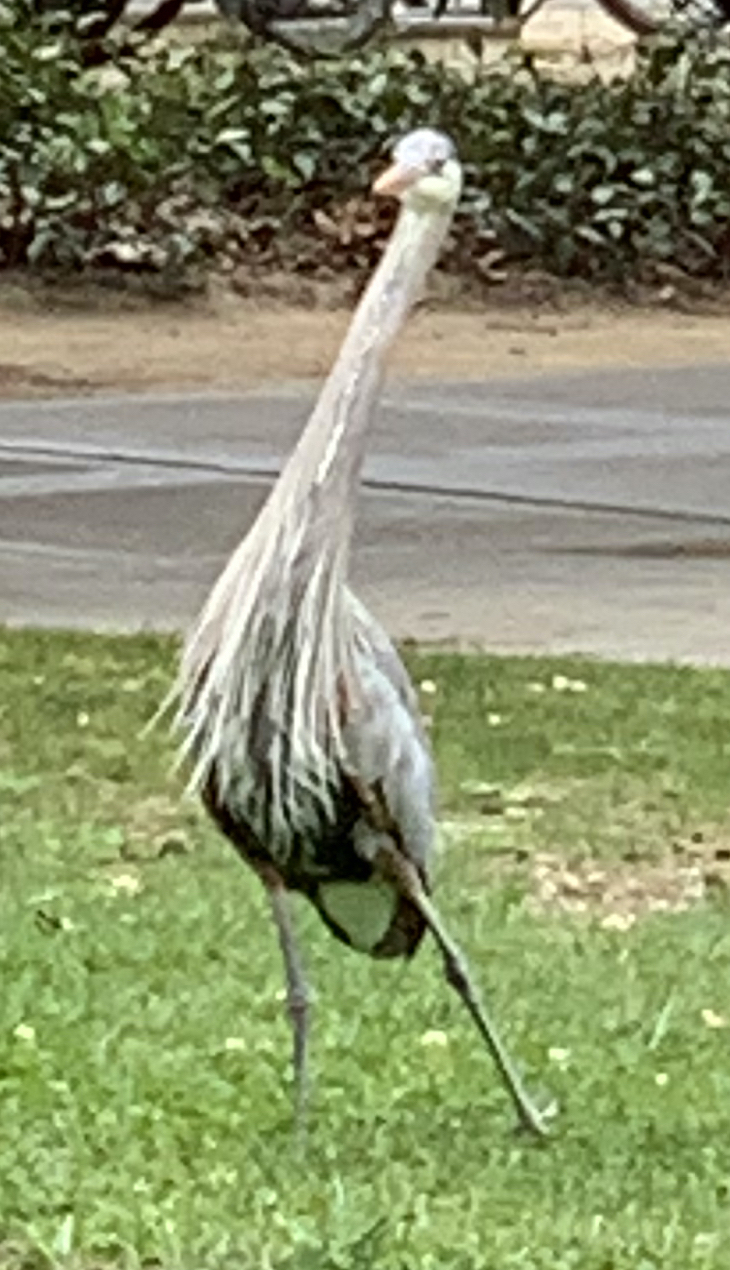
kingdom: Animalia
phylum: Chordata
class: Aves
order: Pelecaniformes
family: Ardeidae
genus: Ardea
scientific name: Ardea herodias
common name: Great blue heron
